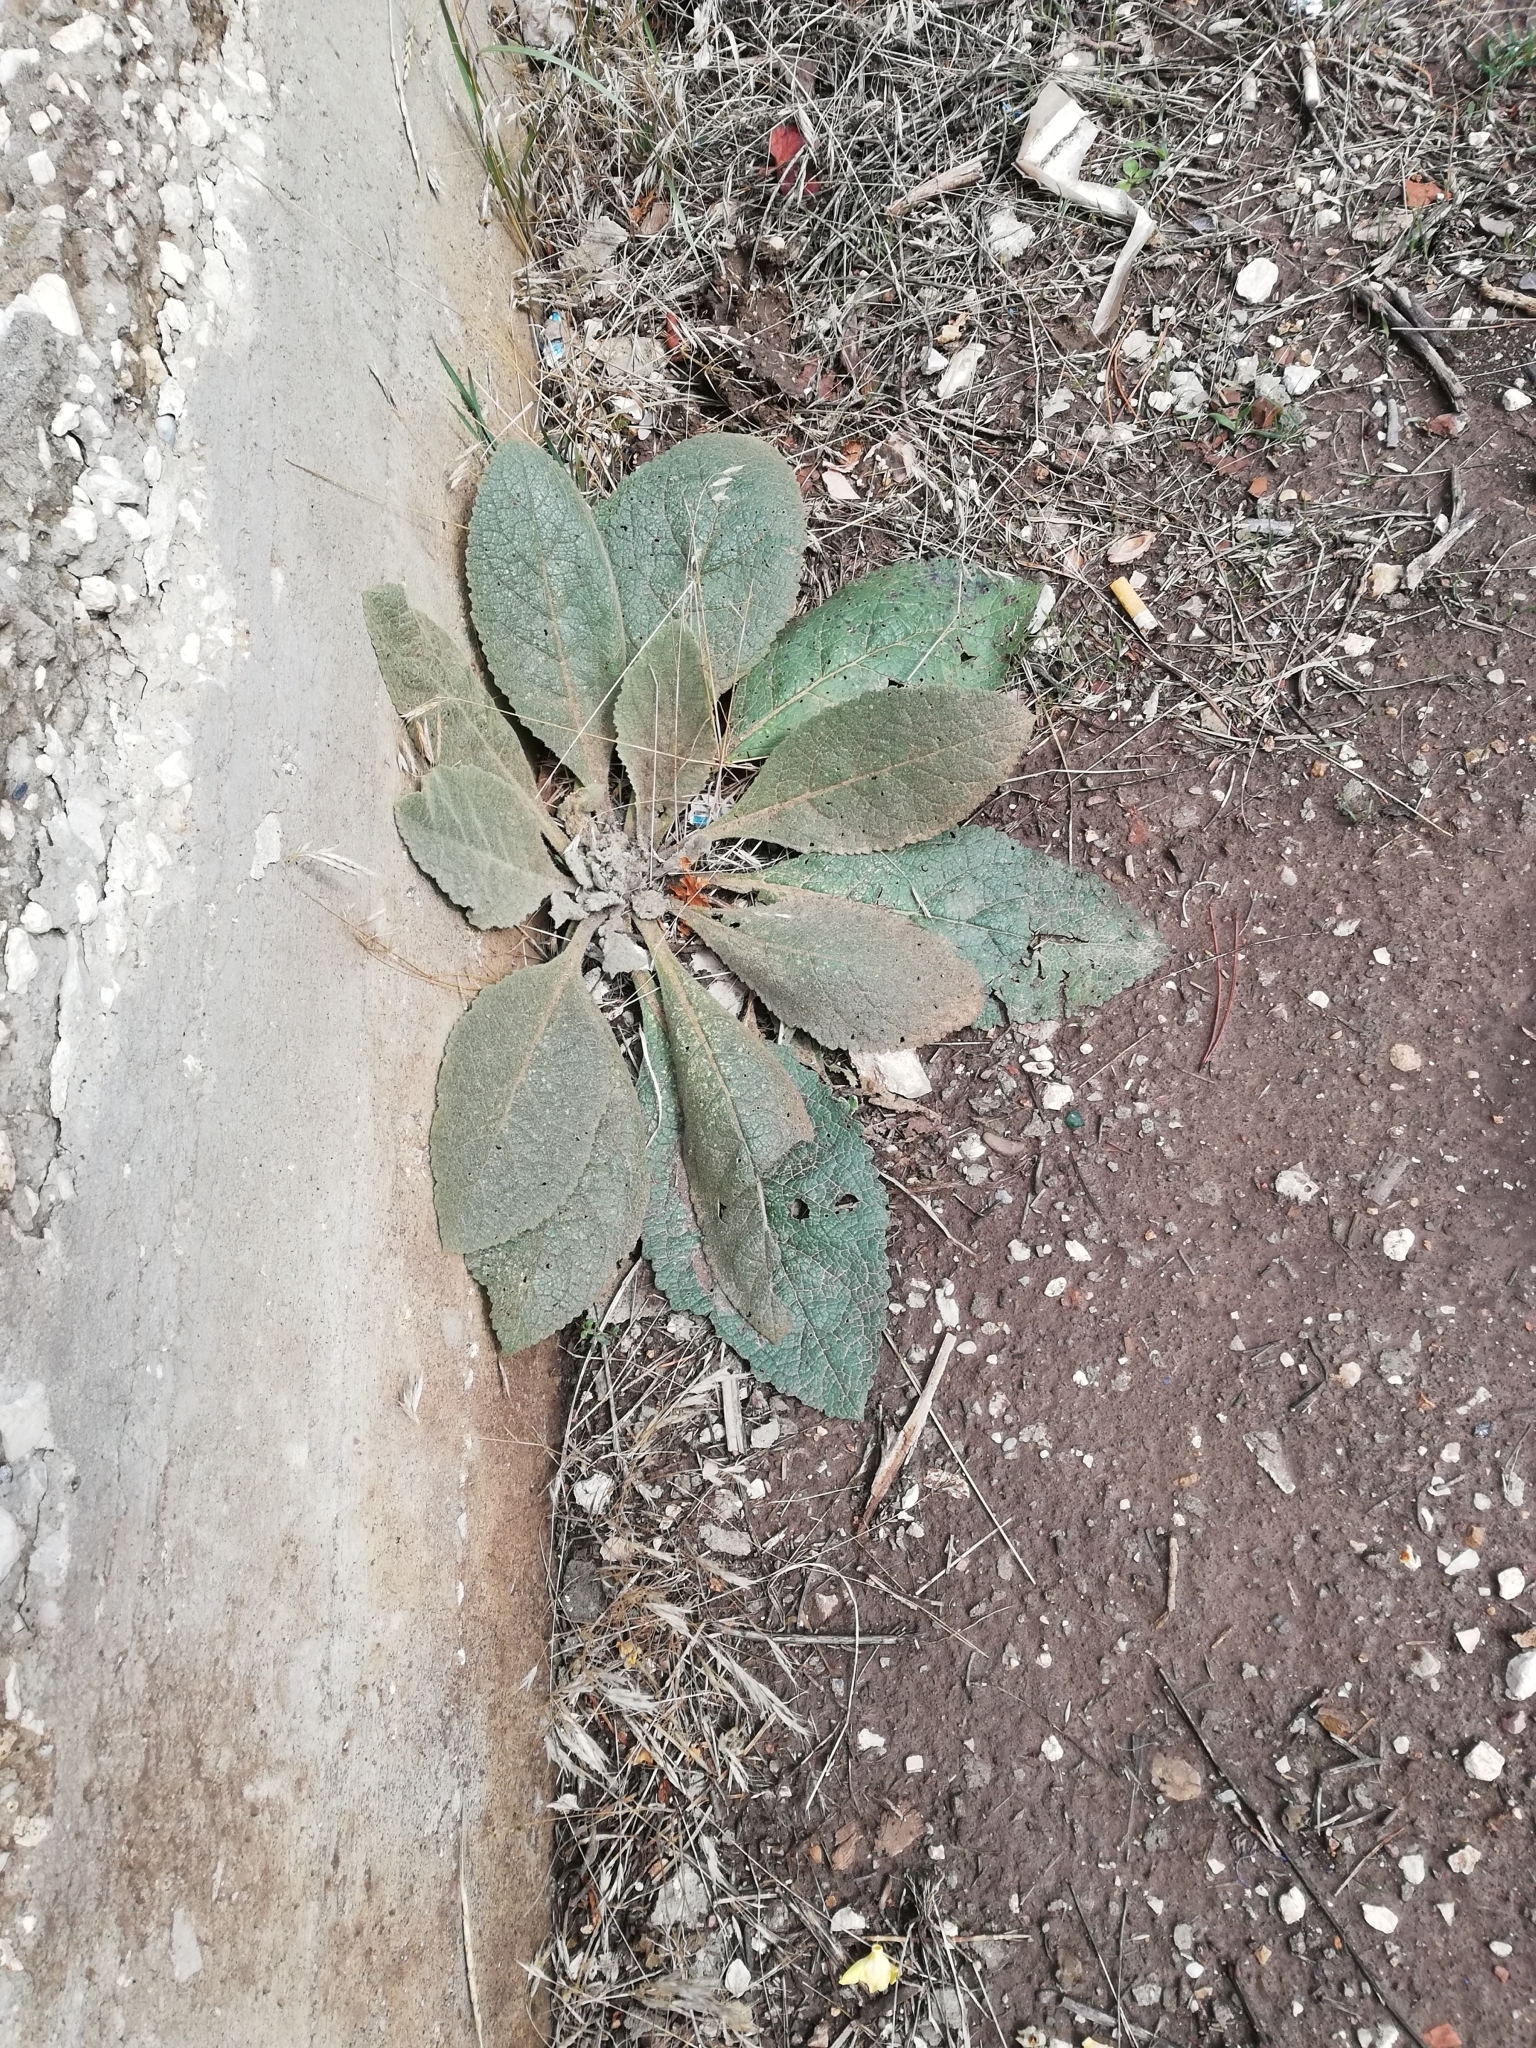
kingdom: Plantae
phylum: Tracheophyta
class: Magnoliopsida
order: Lamiales
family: Scrophulariaceae
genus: Verbascum
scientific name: Verbascum ovalifolium
